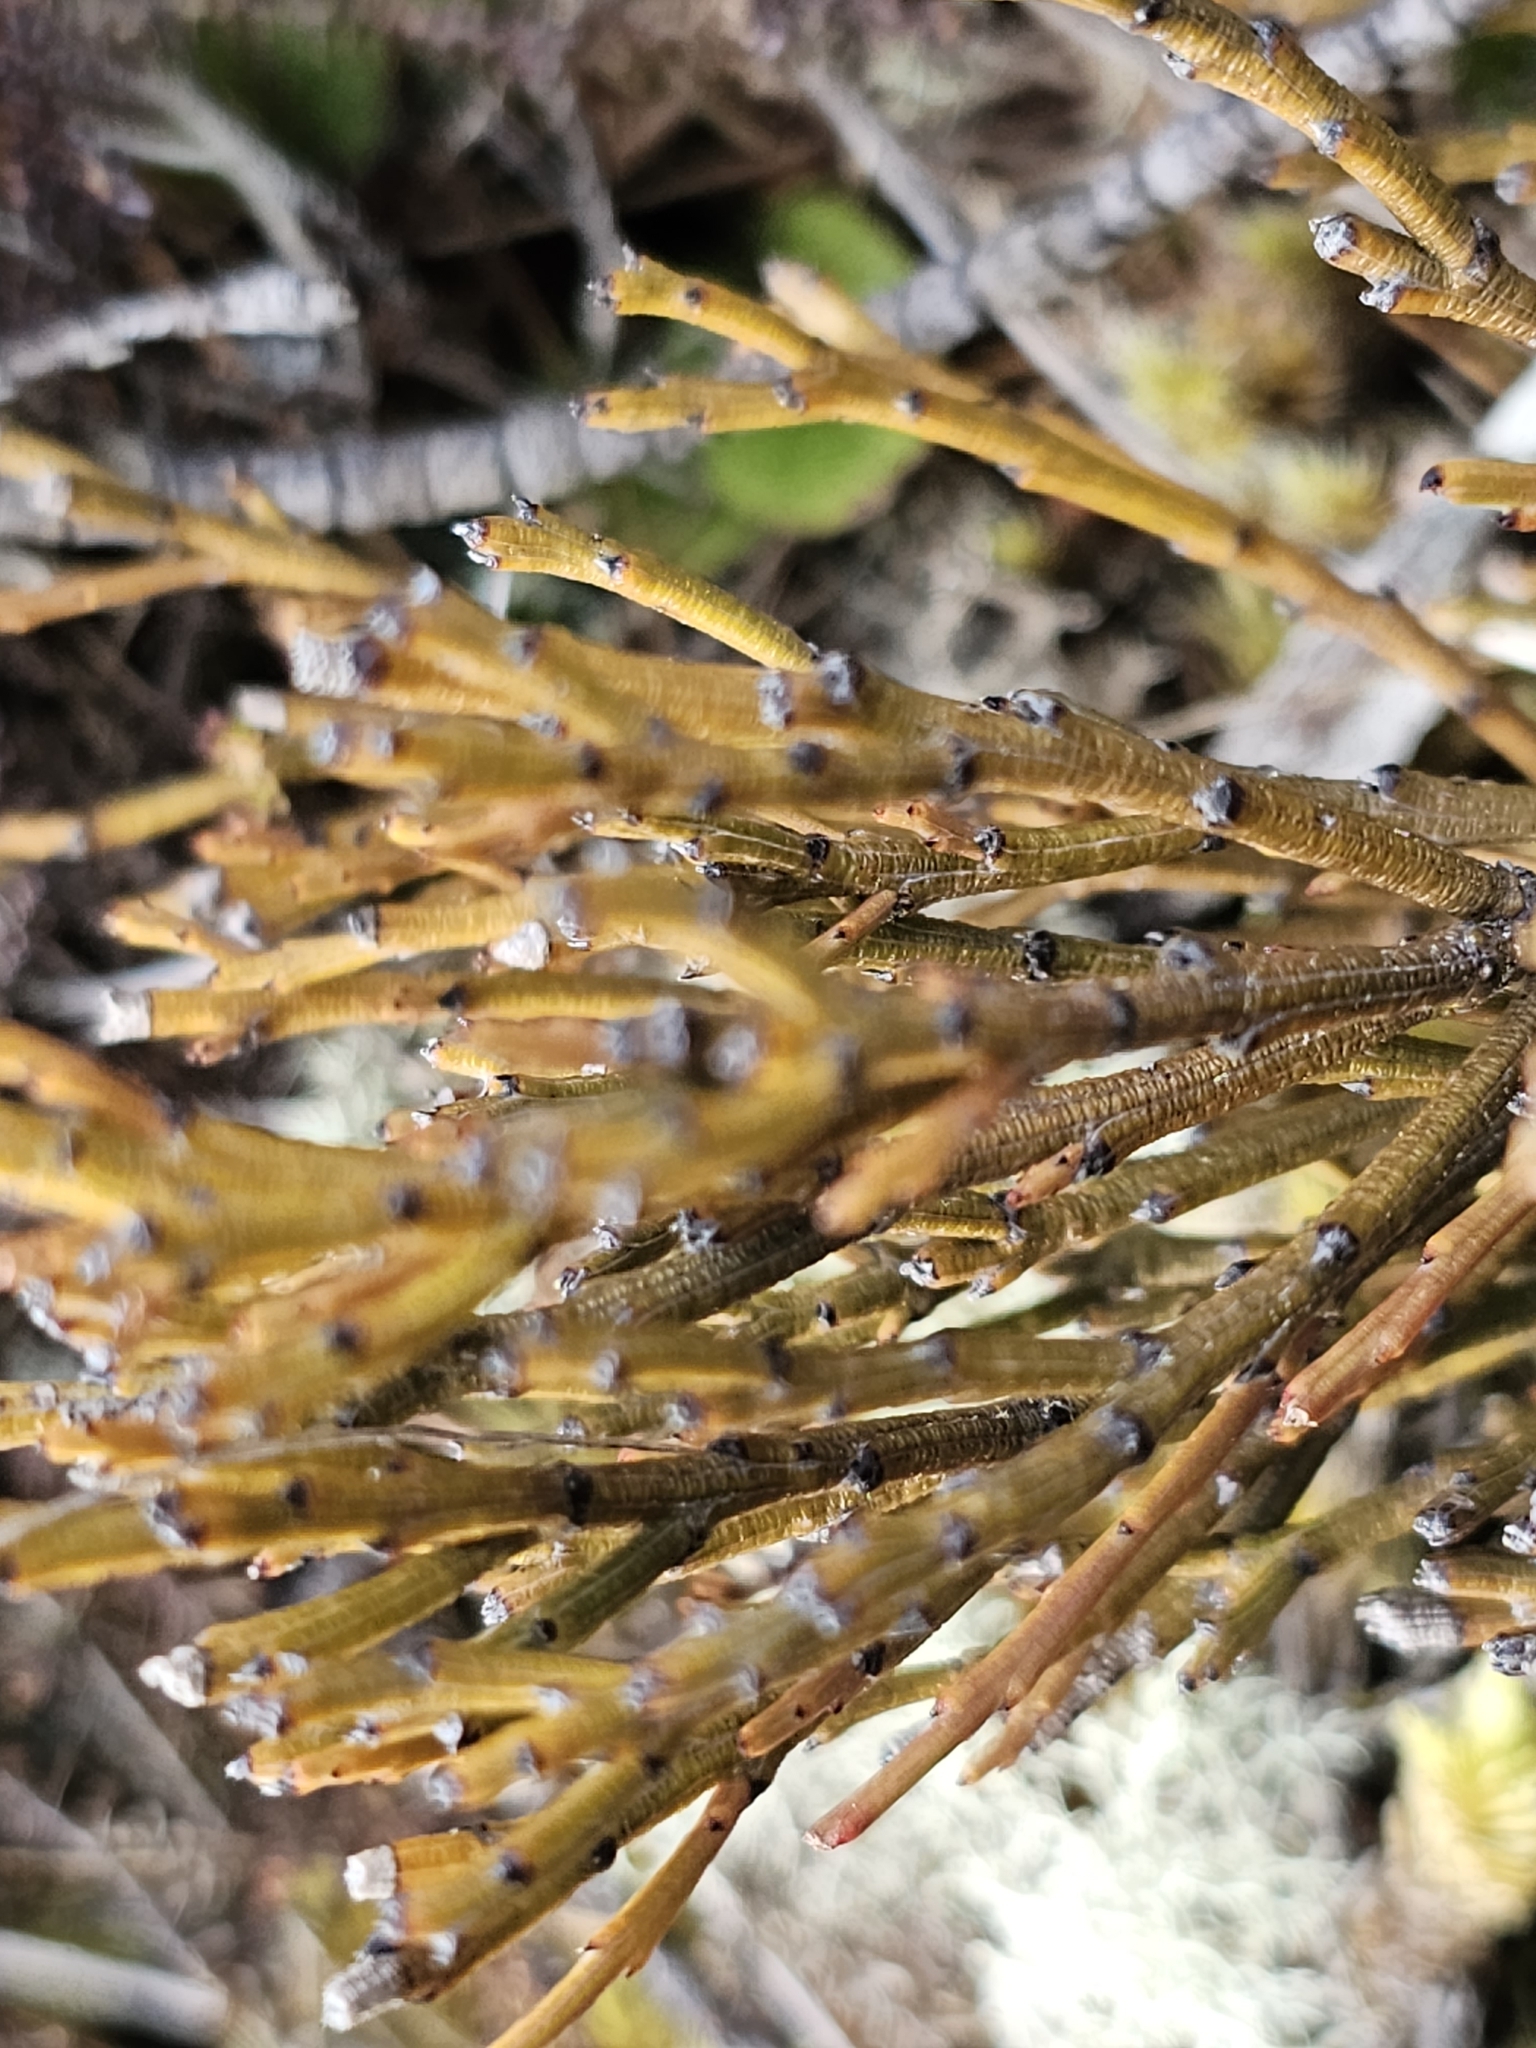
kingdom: Plantae
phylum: Tracheophyta
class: Magnoliopsida
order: Santalales
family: Santalaceae
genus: Exocarpos
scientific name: Exocarpos bidwillii
